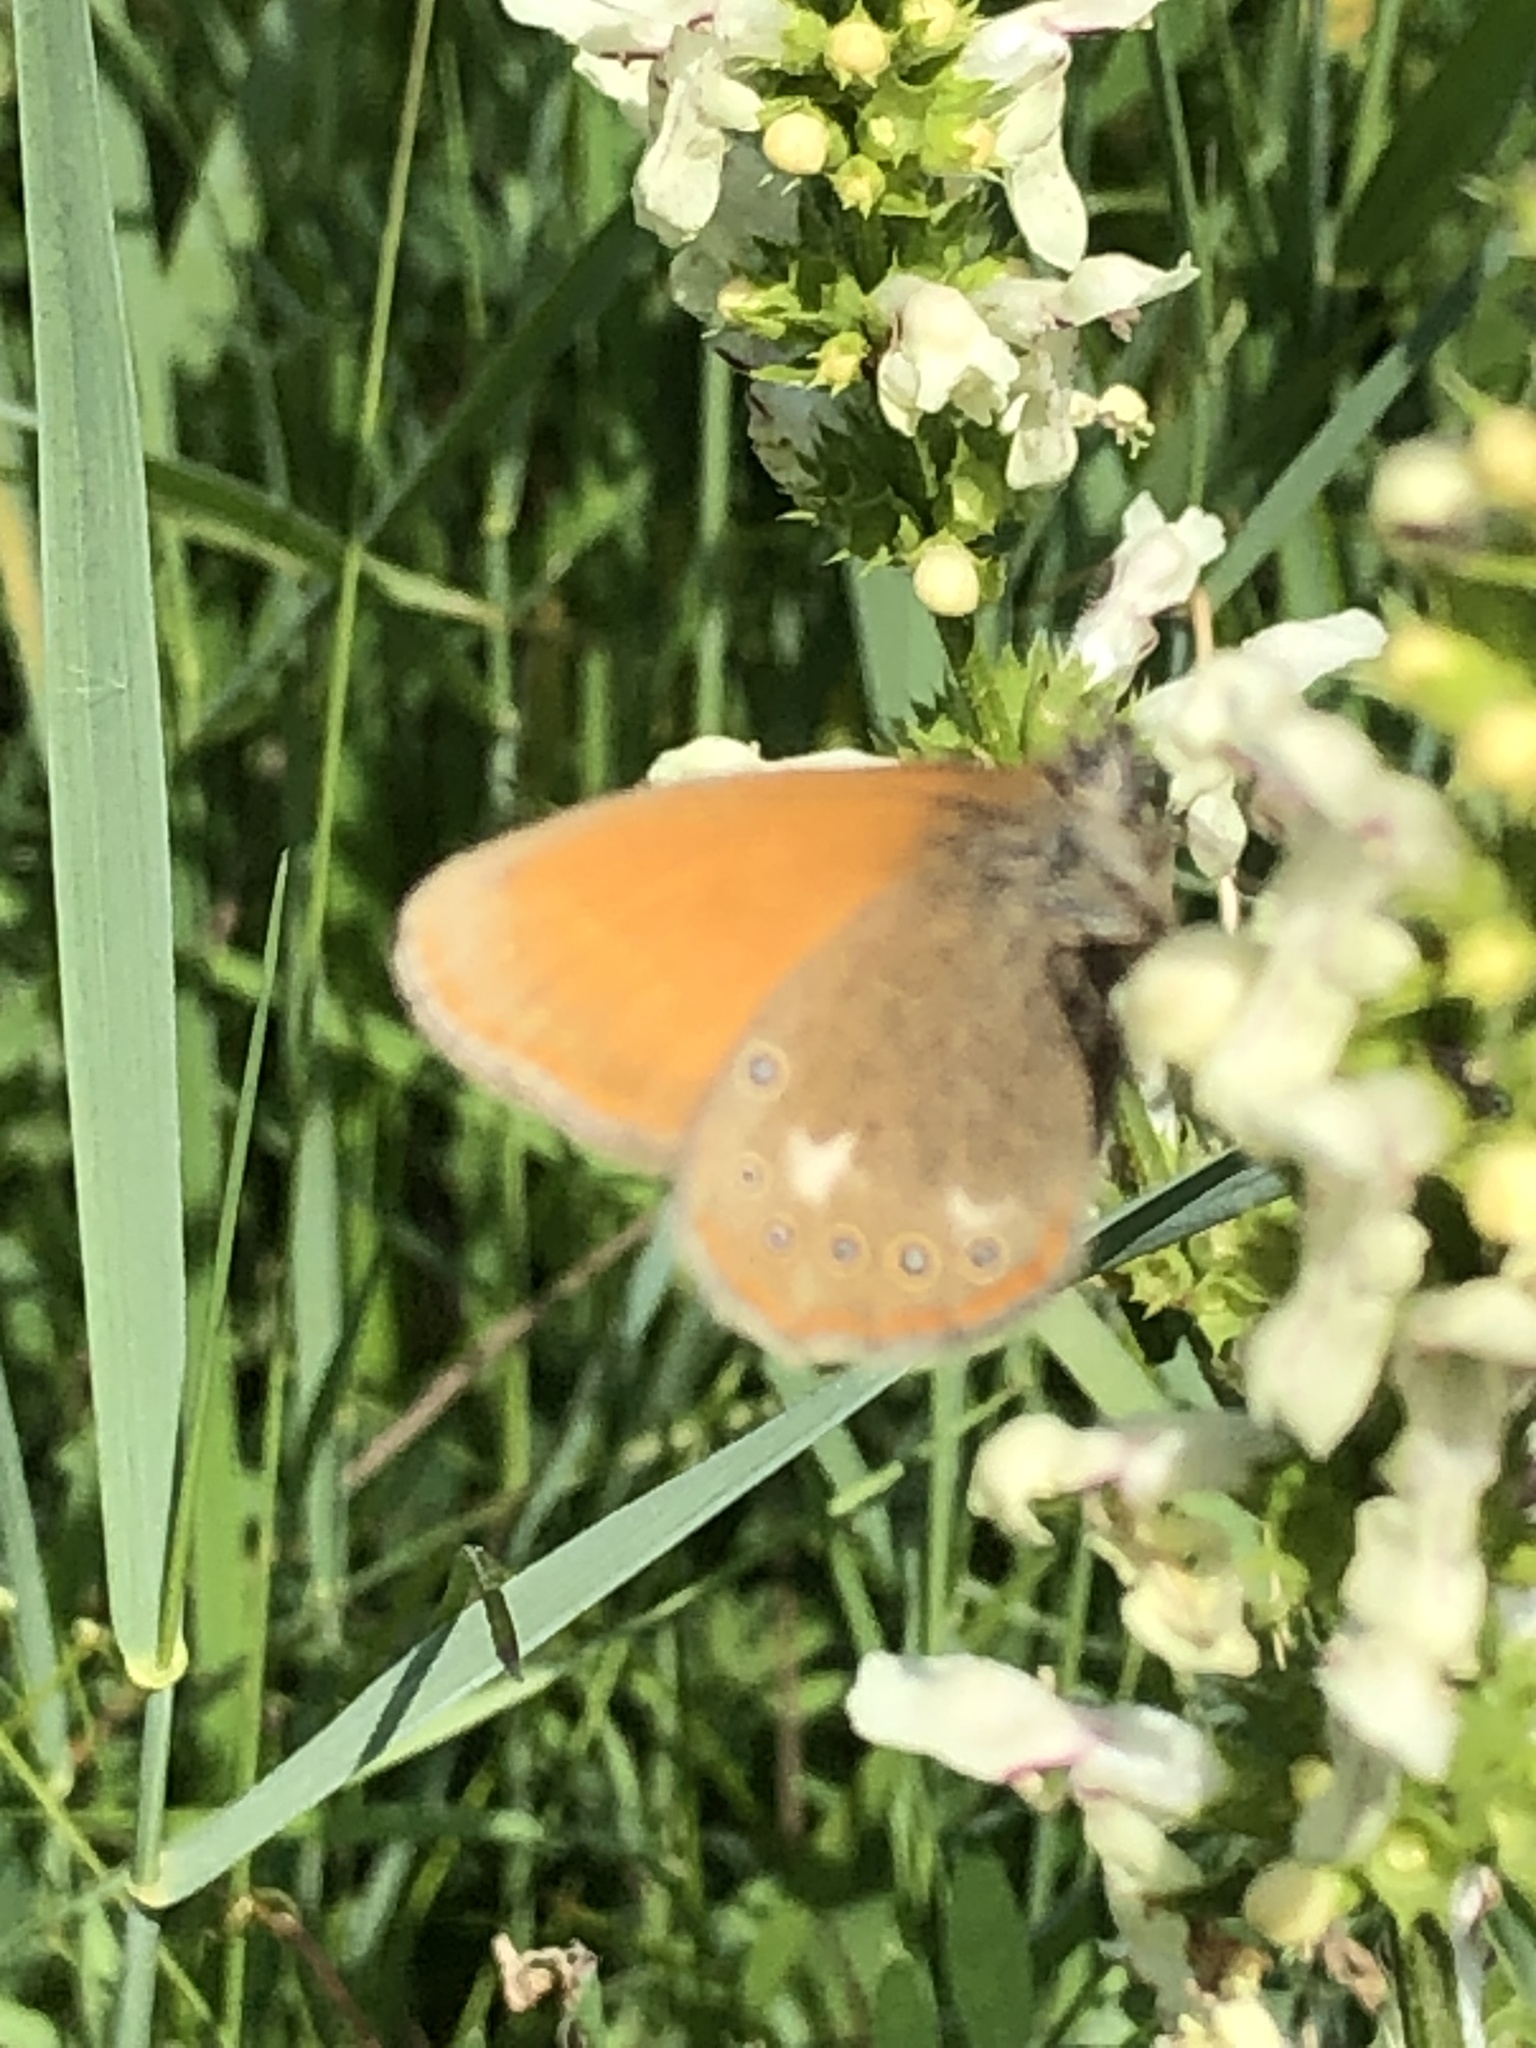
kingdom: Animalia
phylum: Arthropoda
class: Insecta
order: Lepidoptera
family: Nymphalidae
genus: Coenonympha
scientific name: Coenonympha iphis
